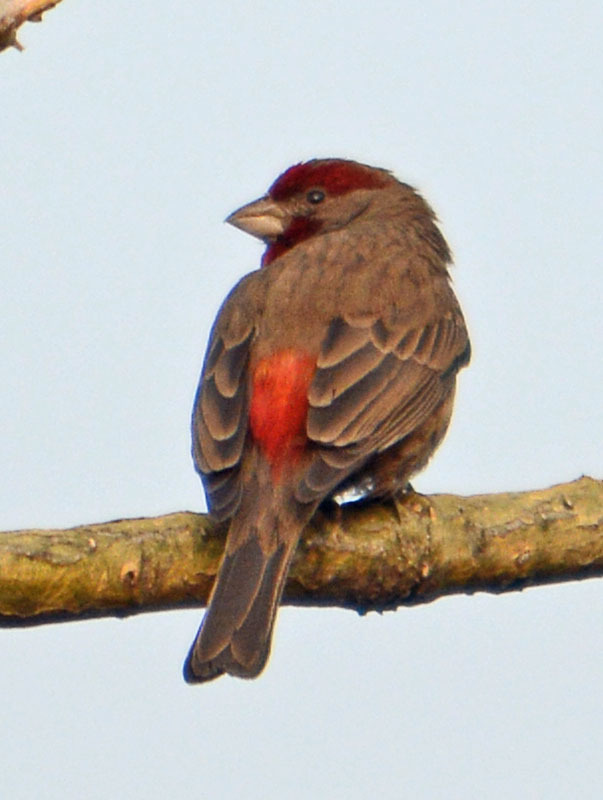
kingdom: Animalia
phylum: Chordata
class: Aves
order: Passeriformes
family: Fringillidae
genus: Haemorhous
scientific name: Haemorhous mexicanus
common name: House finch
